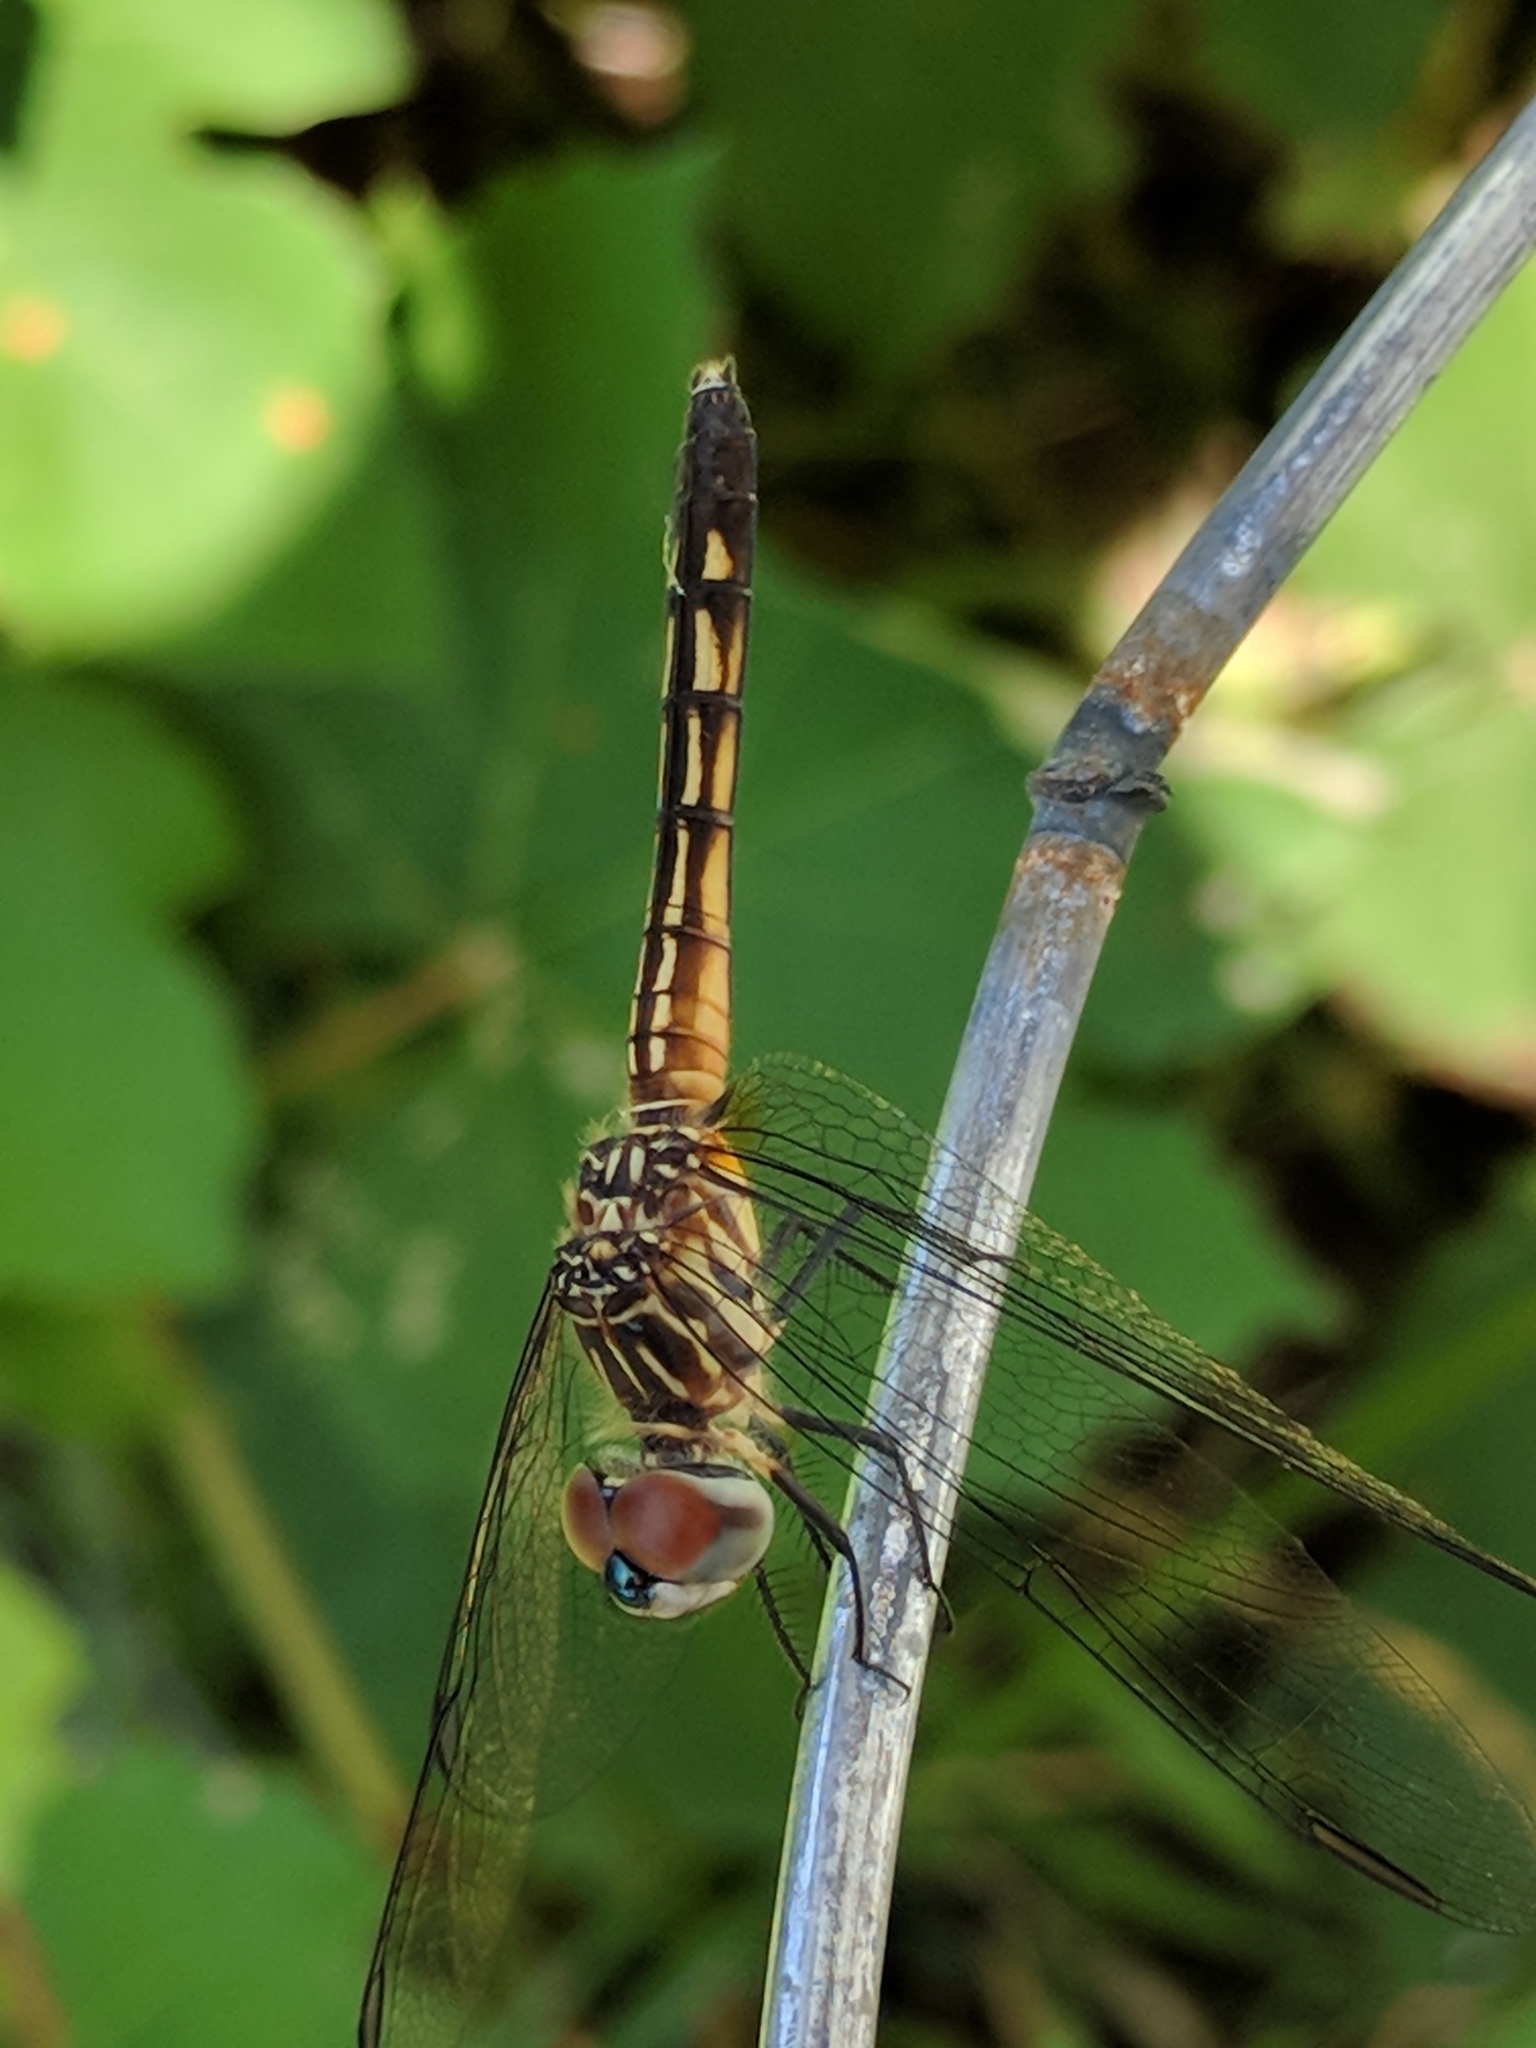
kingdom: Animalia
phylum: Arthropoda
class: Insecta
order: Odonata
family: Libellulidae
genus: Pachydiplax
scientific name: Pachydiplax longipennis
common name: Blue dasher
